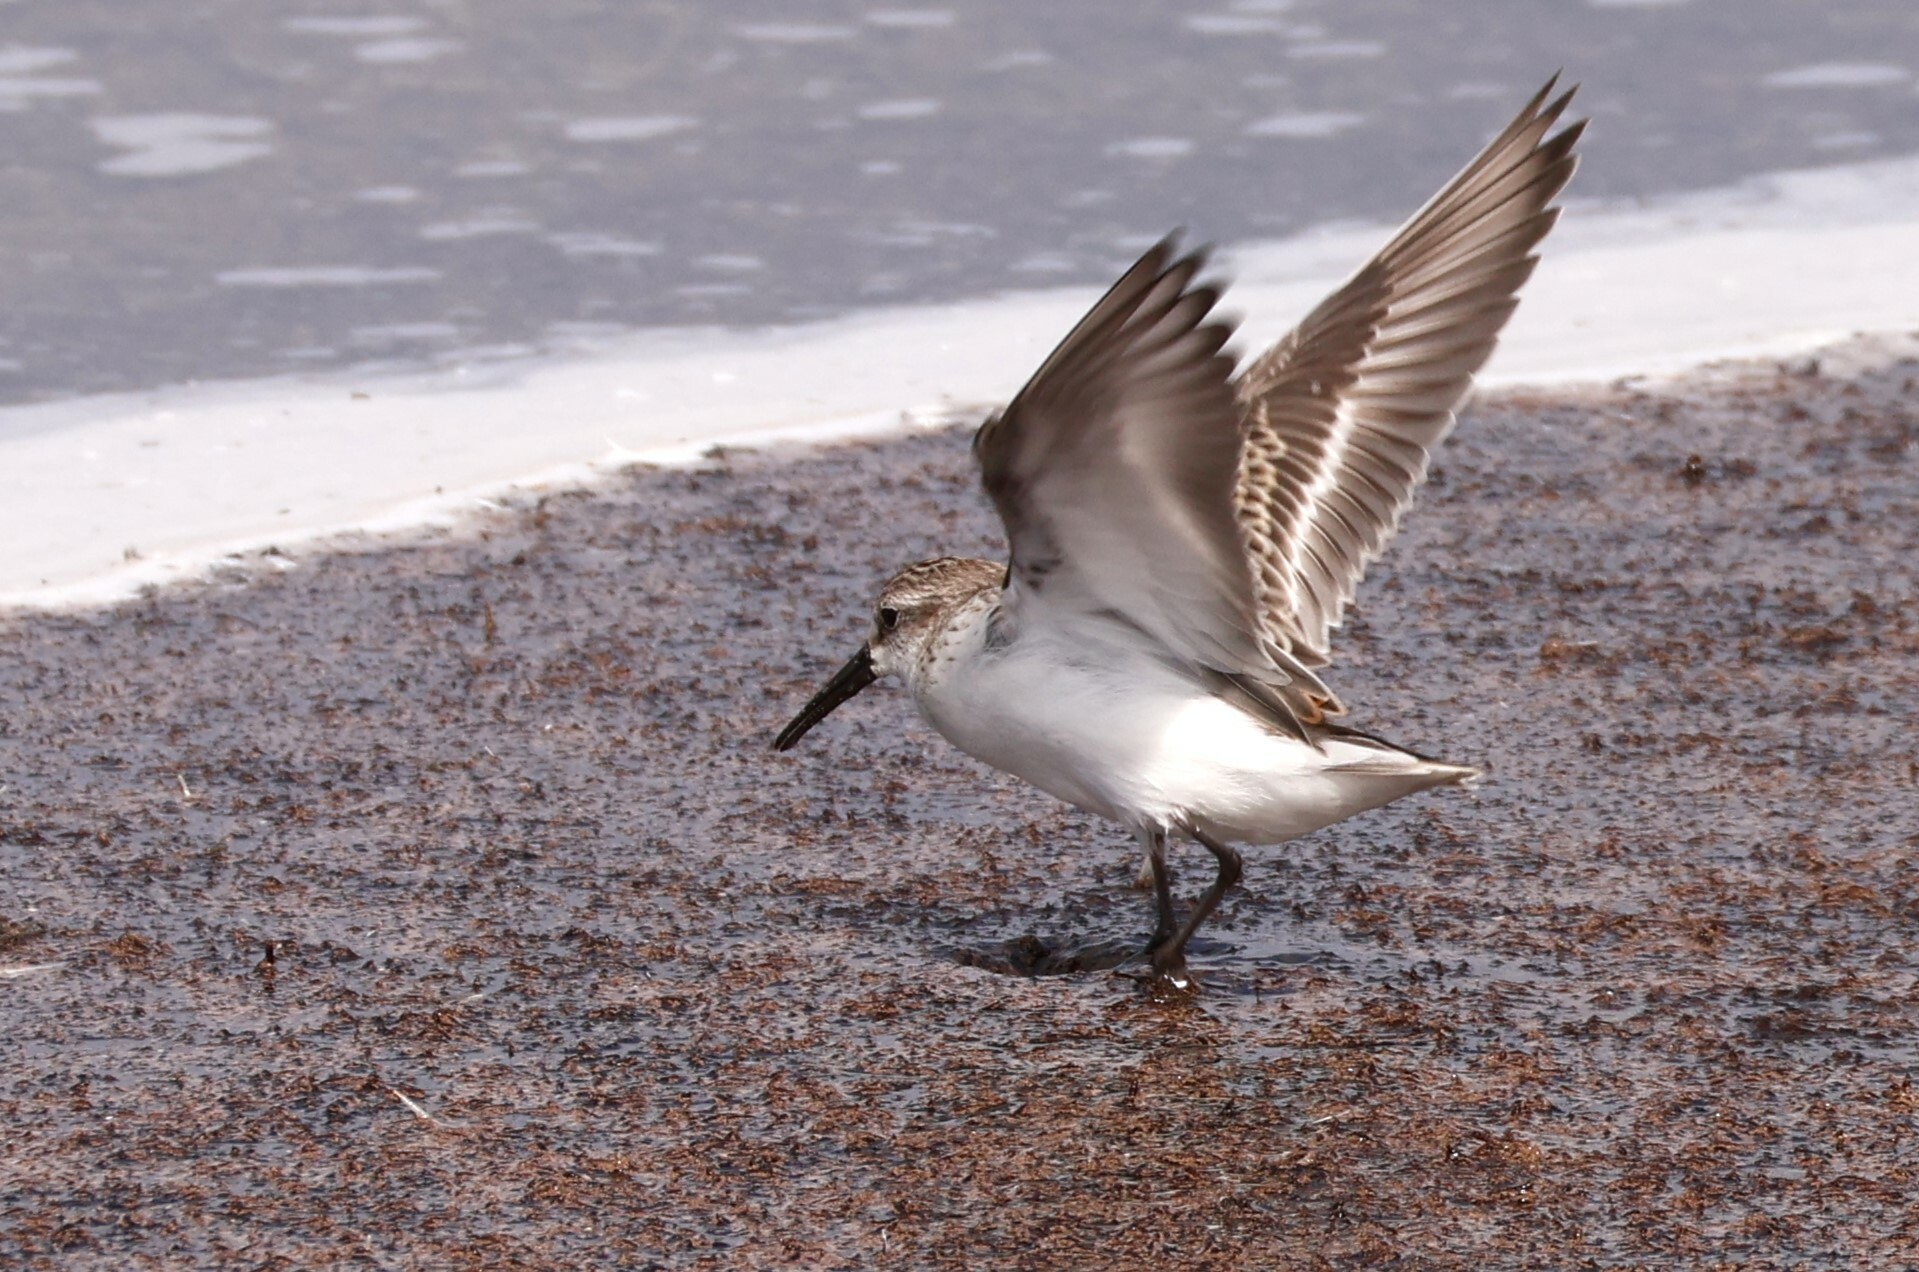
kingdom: Animalia
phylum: Chordata
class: Aves
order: Charadriiformes
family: Scolopacidae
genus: Calidris
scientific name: Calidris mauri
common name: Western sandpiper
